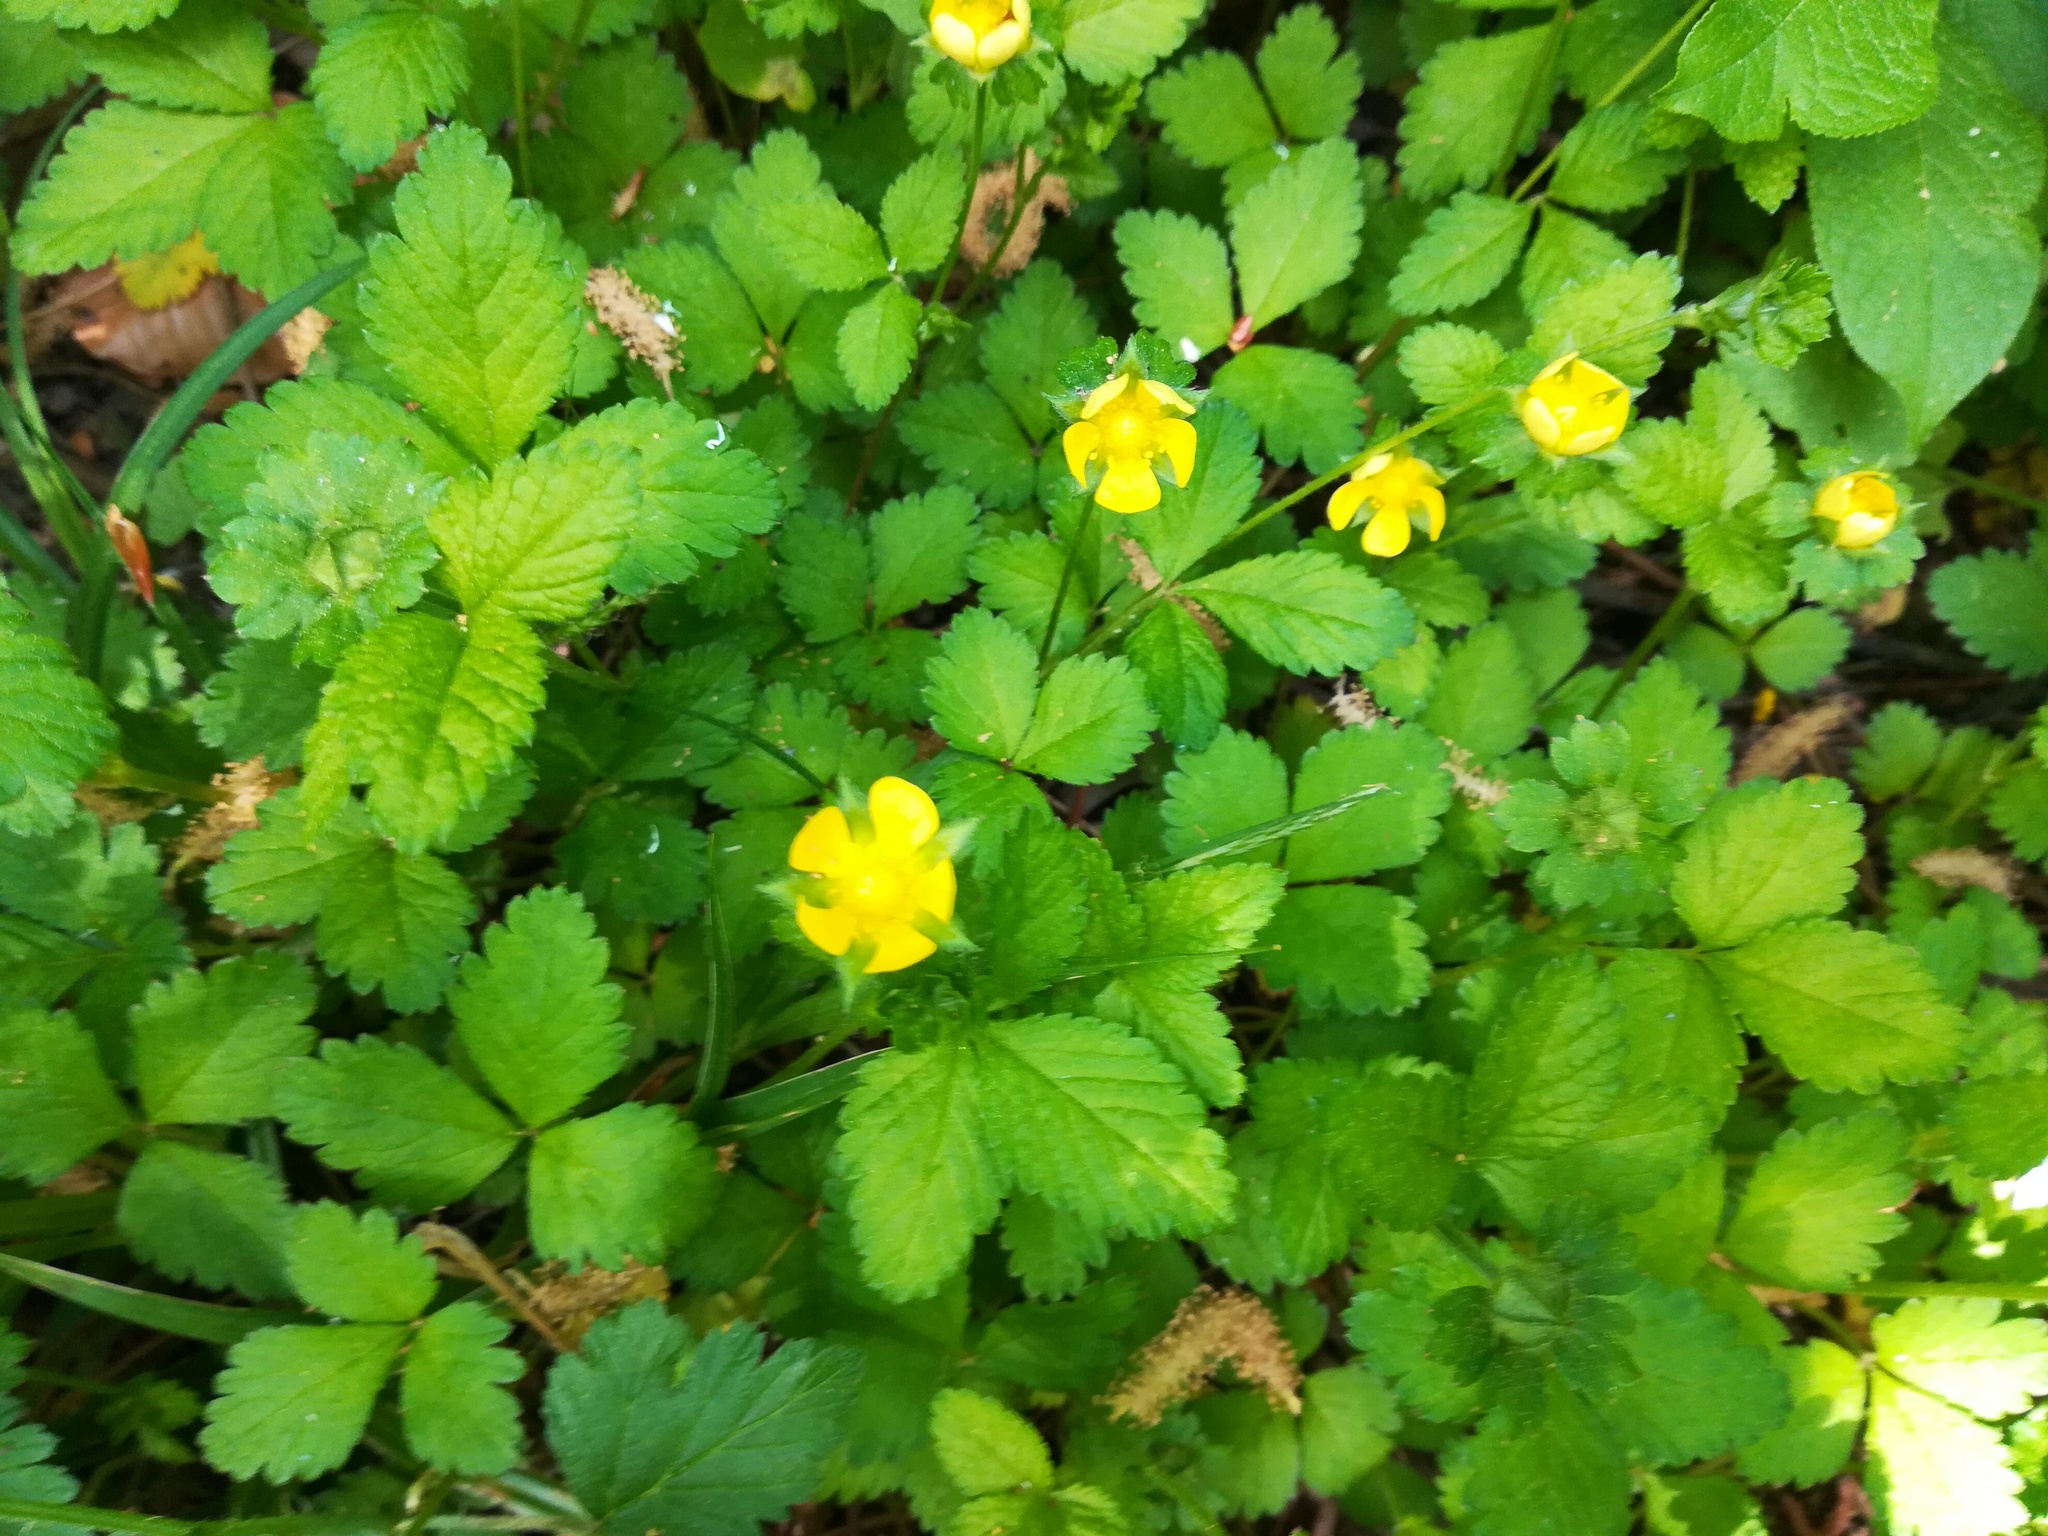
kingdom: Plantae
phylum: Tracheophyta
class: Magnoliopsida
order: Rosales
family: Rosaceae
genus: Potentilla
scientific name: Potentilla indica
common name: Yellow-flowered strawberry
